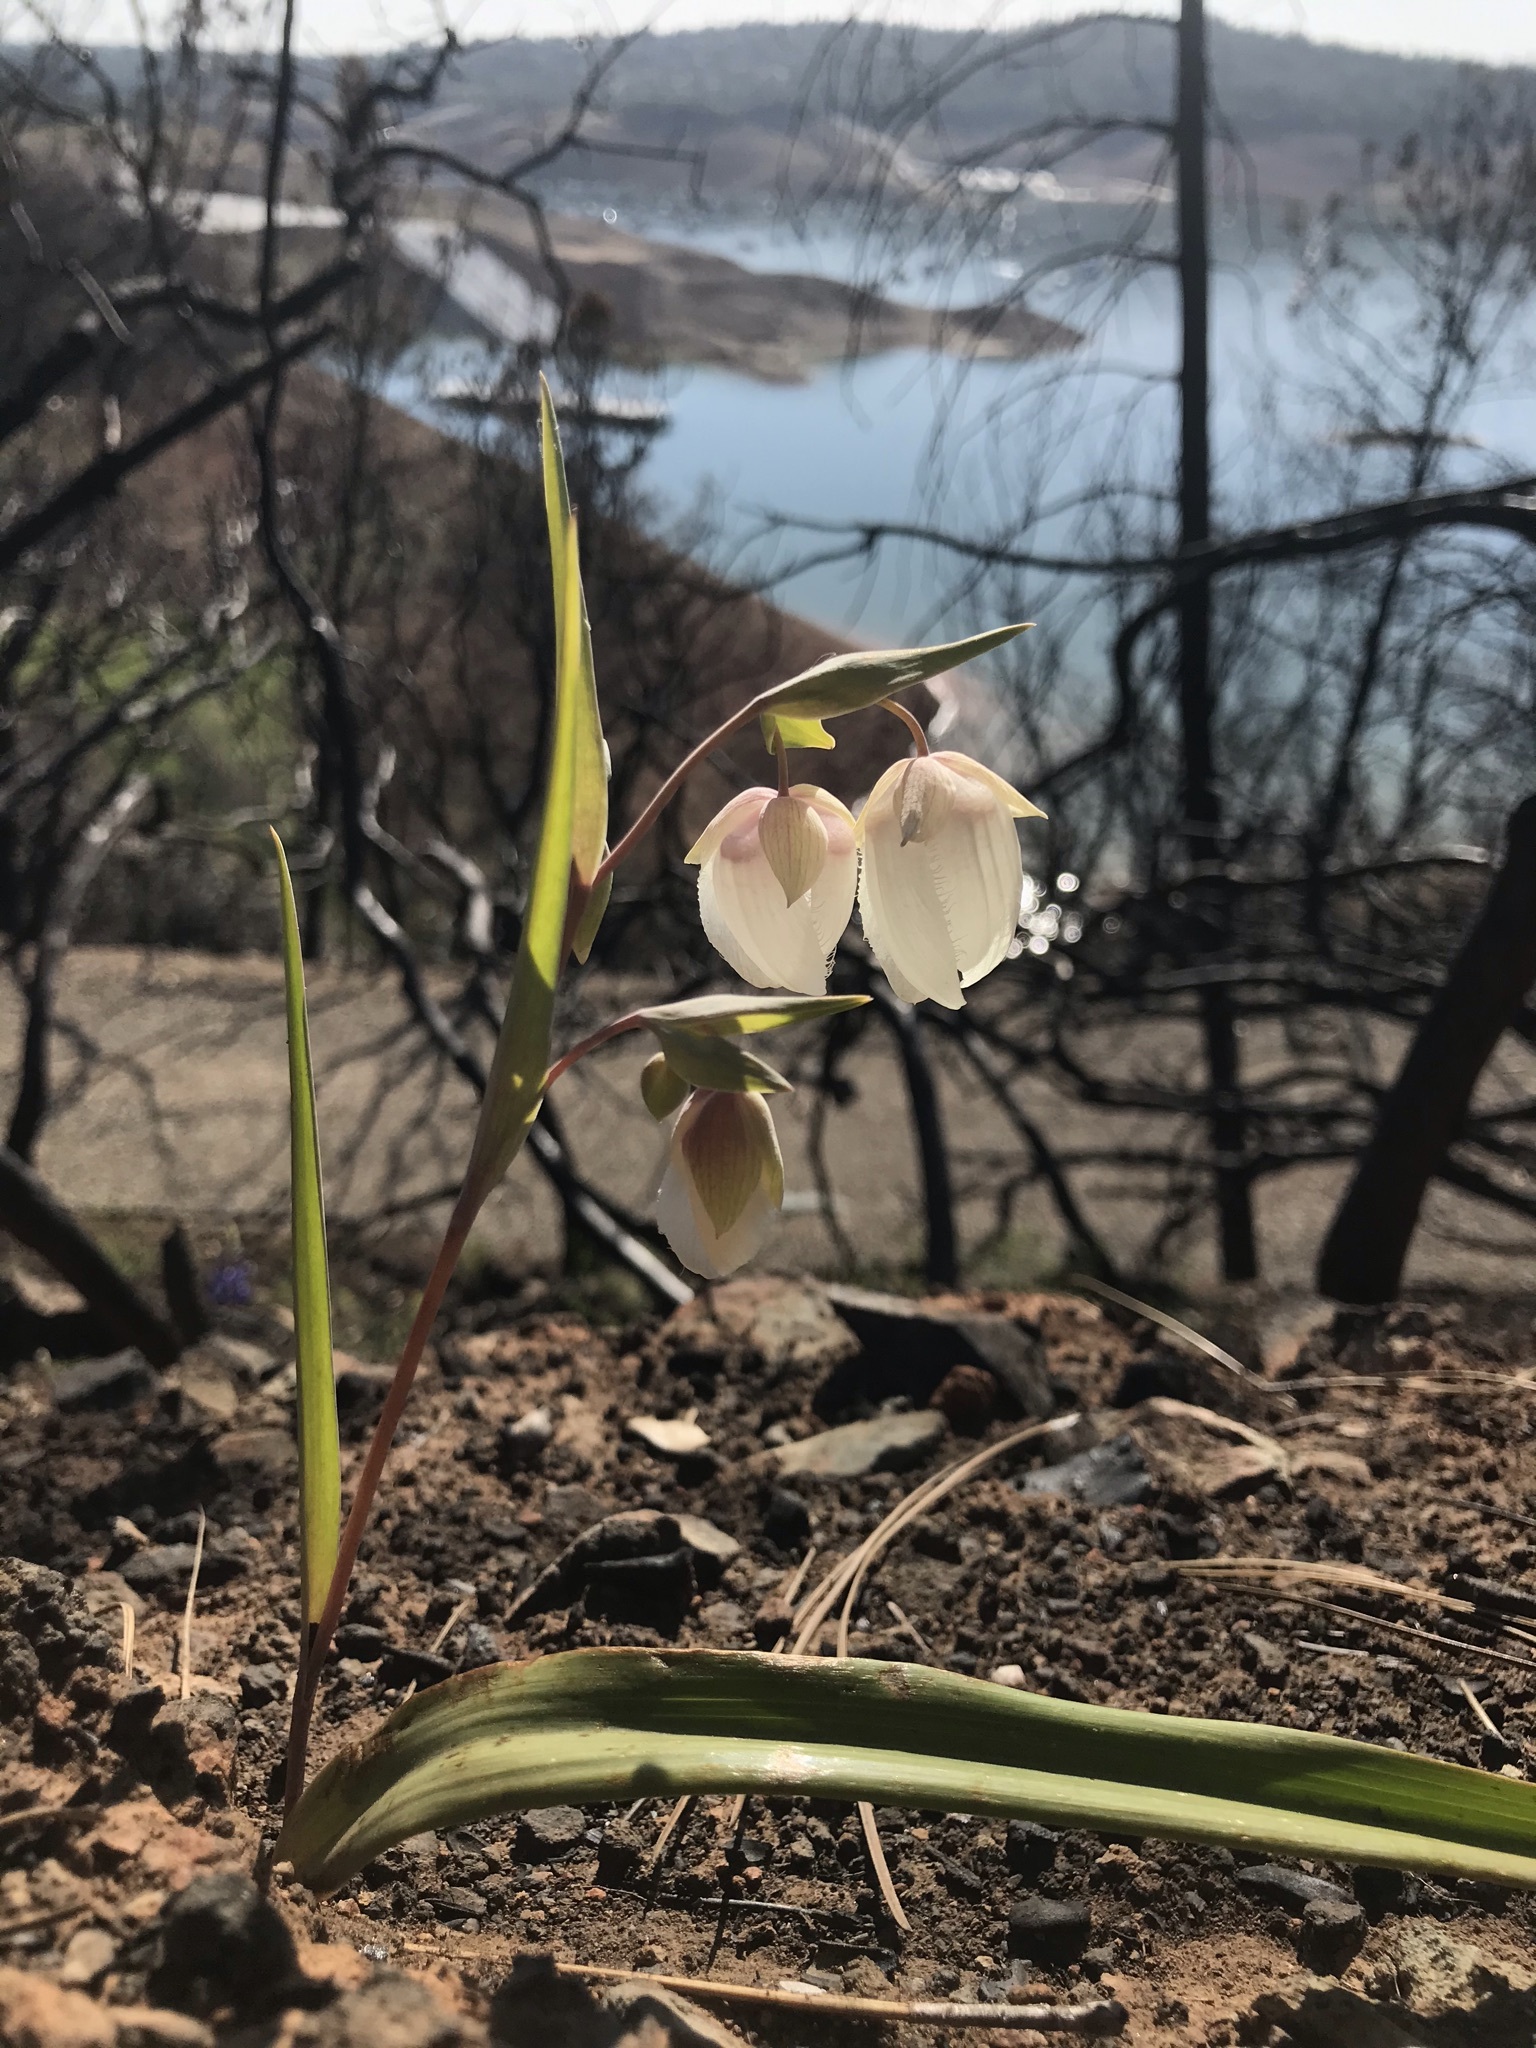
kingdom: Plantae
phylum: Tracheophyta
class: Liliopsida
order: Liliales
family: Liliaceae
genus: Calochortus
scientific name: Calochortus albus
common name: Fairy-lantern
